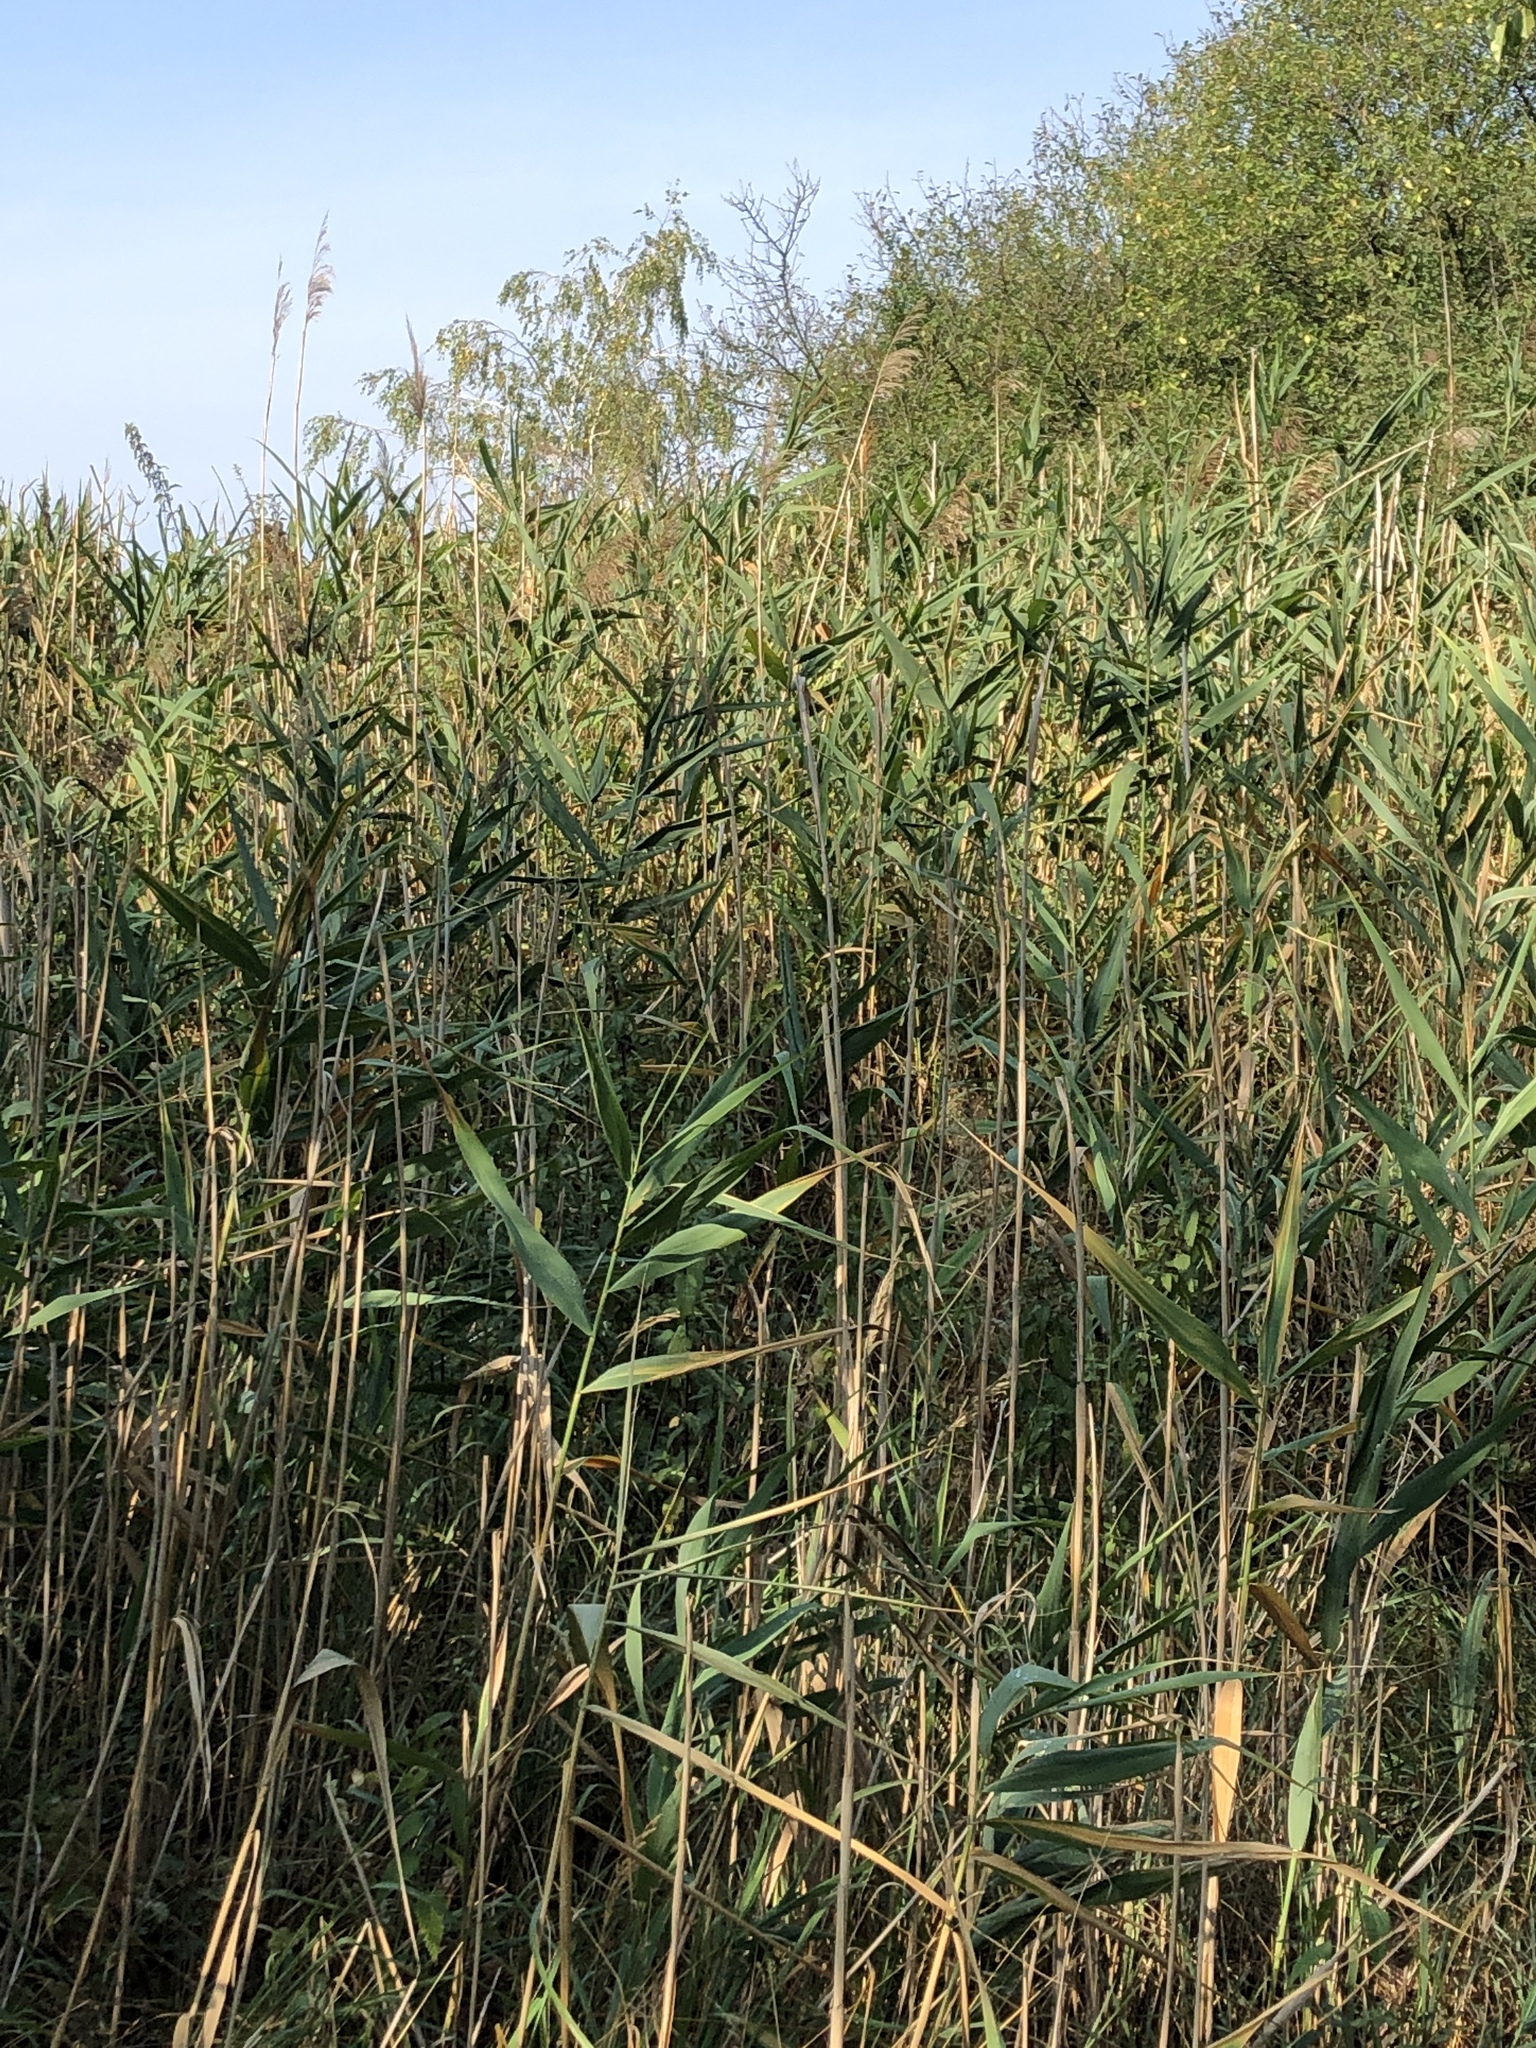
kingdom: Plantae
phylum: Tracheophyta
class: Liliopsida
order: Poales
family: Poaceae
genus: Phragmites
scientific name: Phragmites australis
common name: Common reed
